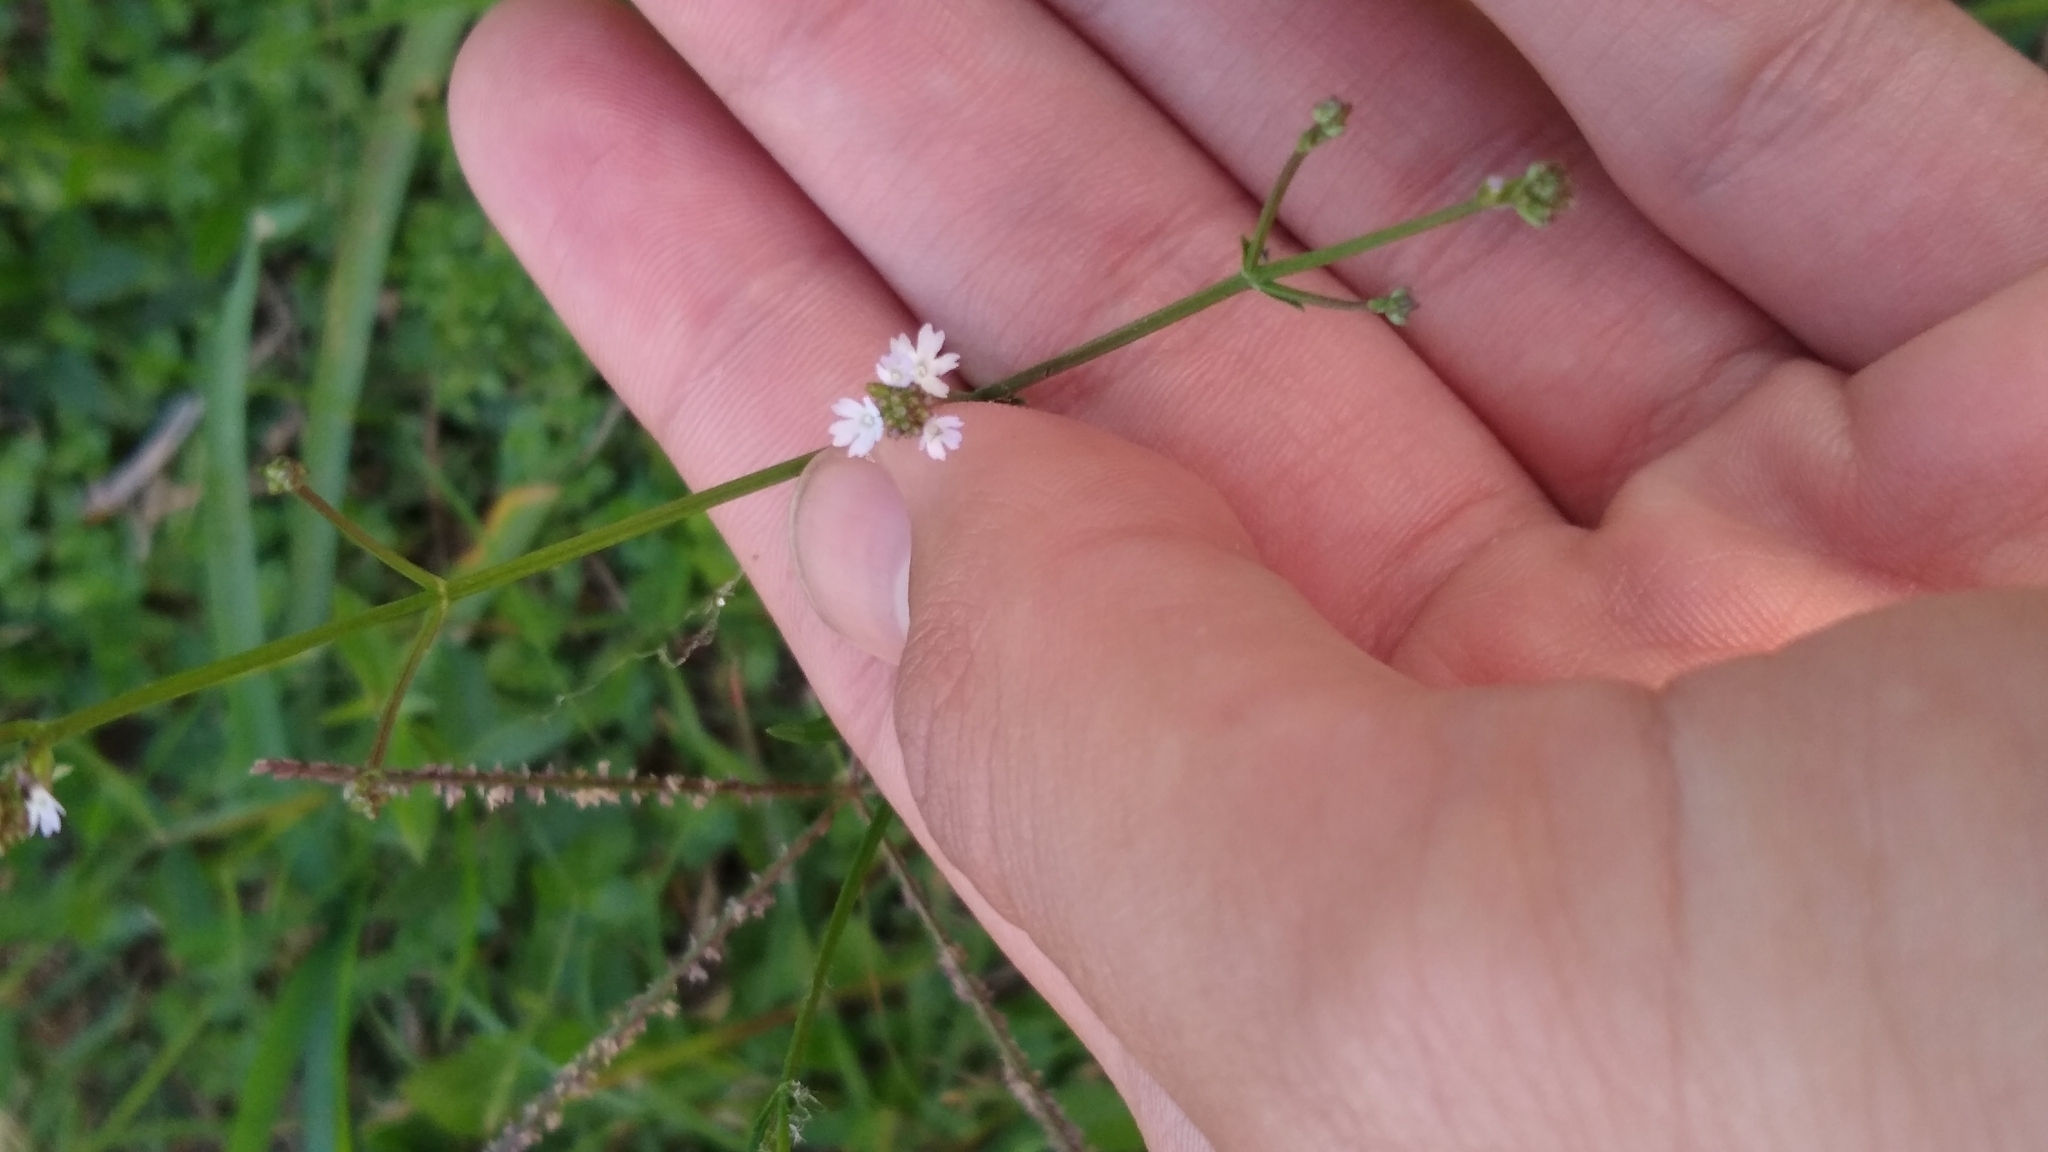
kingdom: Plantae
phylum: Tracheophyta
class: Magnoliopsida
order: Lamiales
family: Verbenaceae
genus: Verbena
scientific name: Verbena montevidensis
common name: Uruguayan vervain
